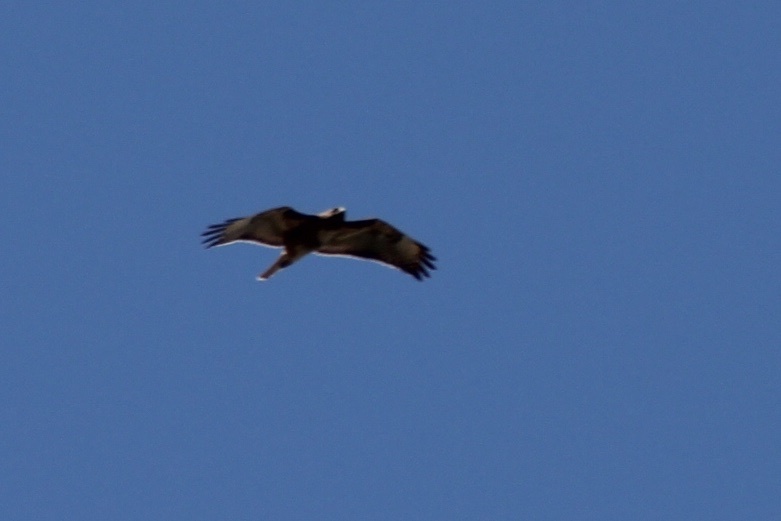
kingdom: Animalia
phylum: Chordata
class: Aves
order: Accipitriformes
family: Accipitridae
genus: Buteo
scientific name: Buteo jamaicensis
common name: Red-tailed hawk
